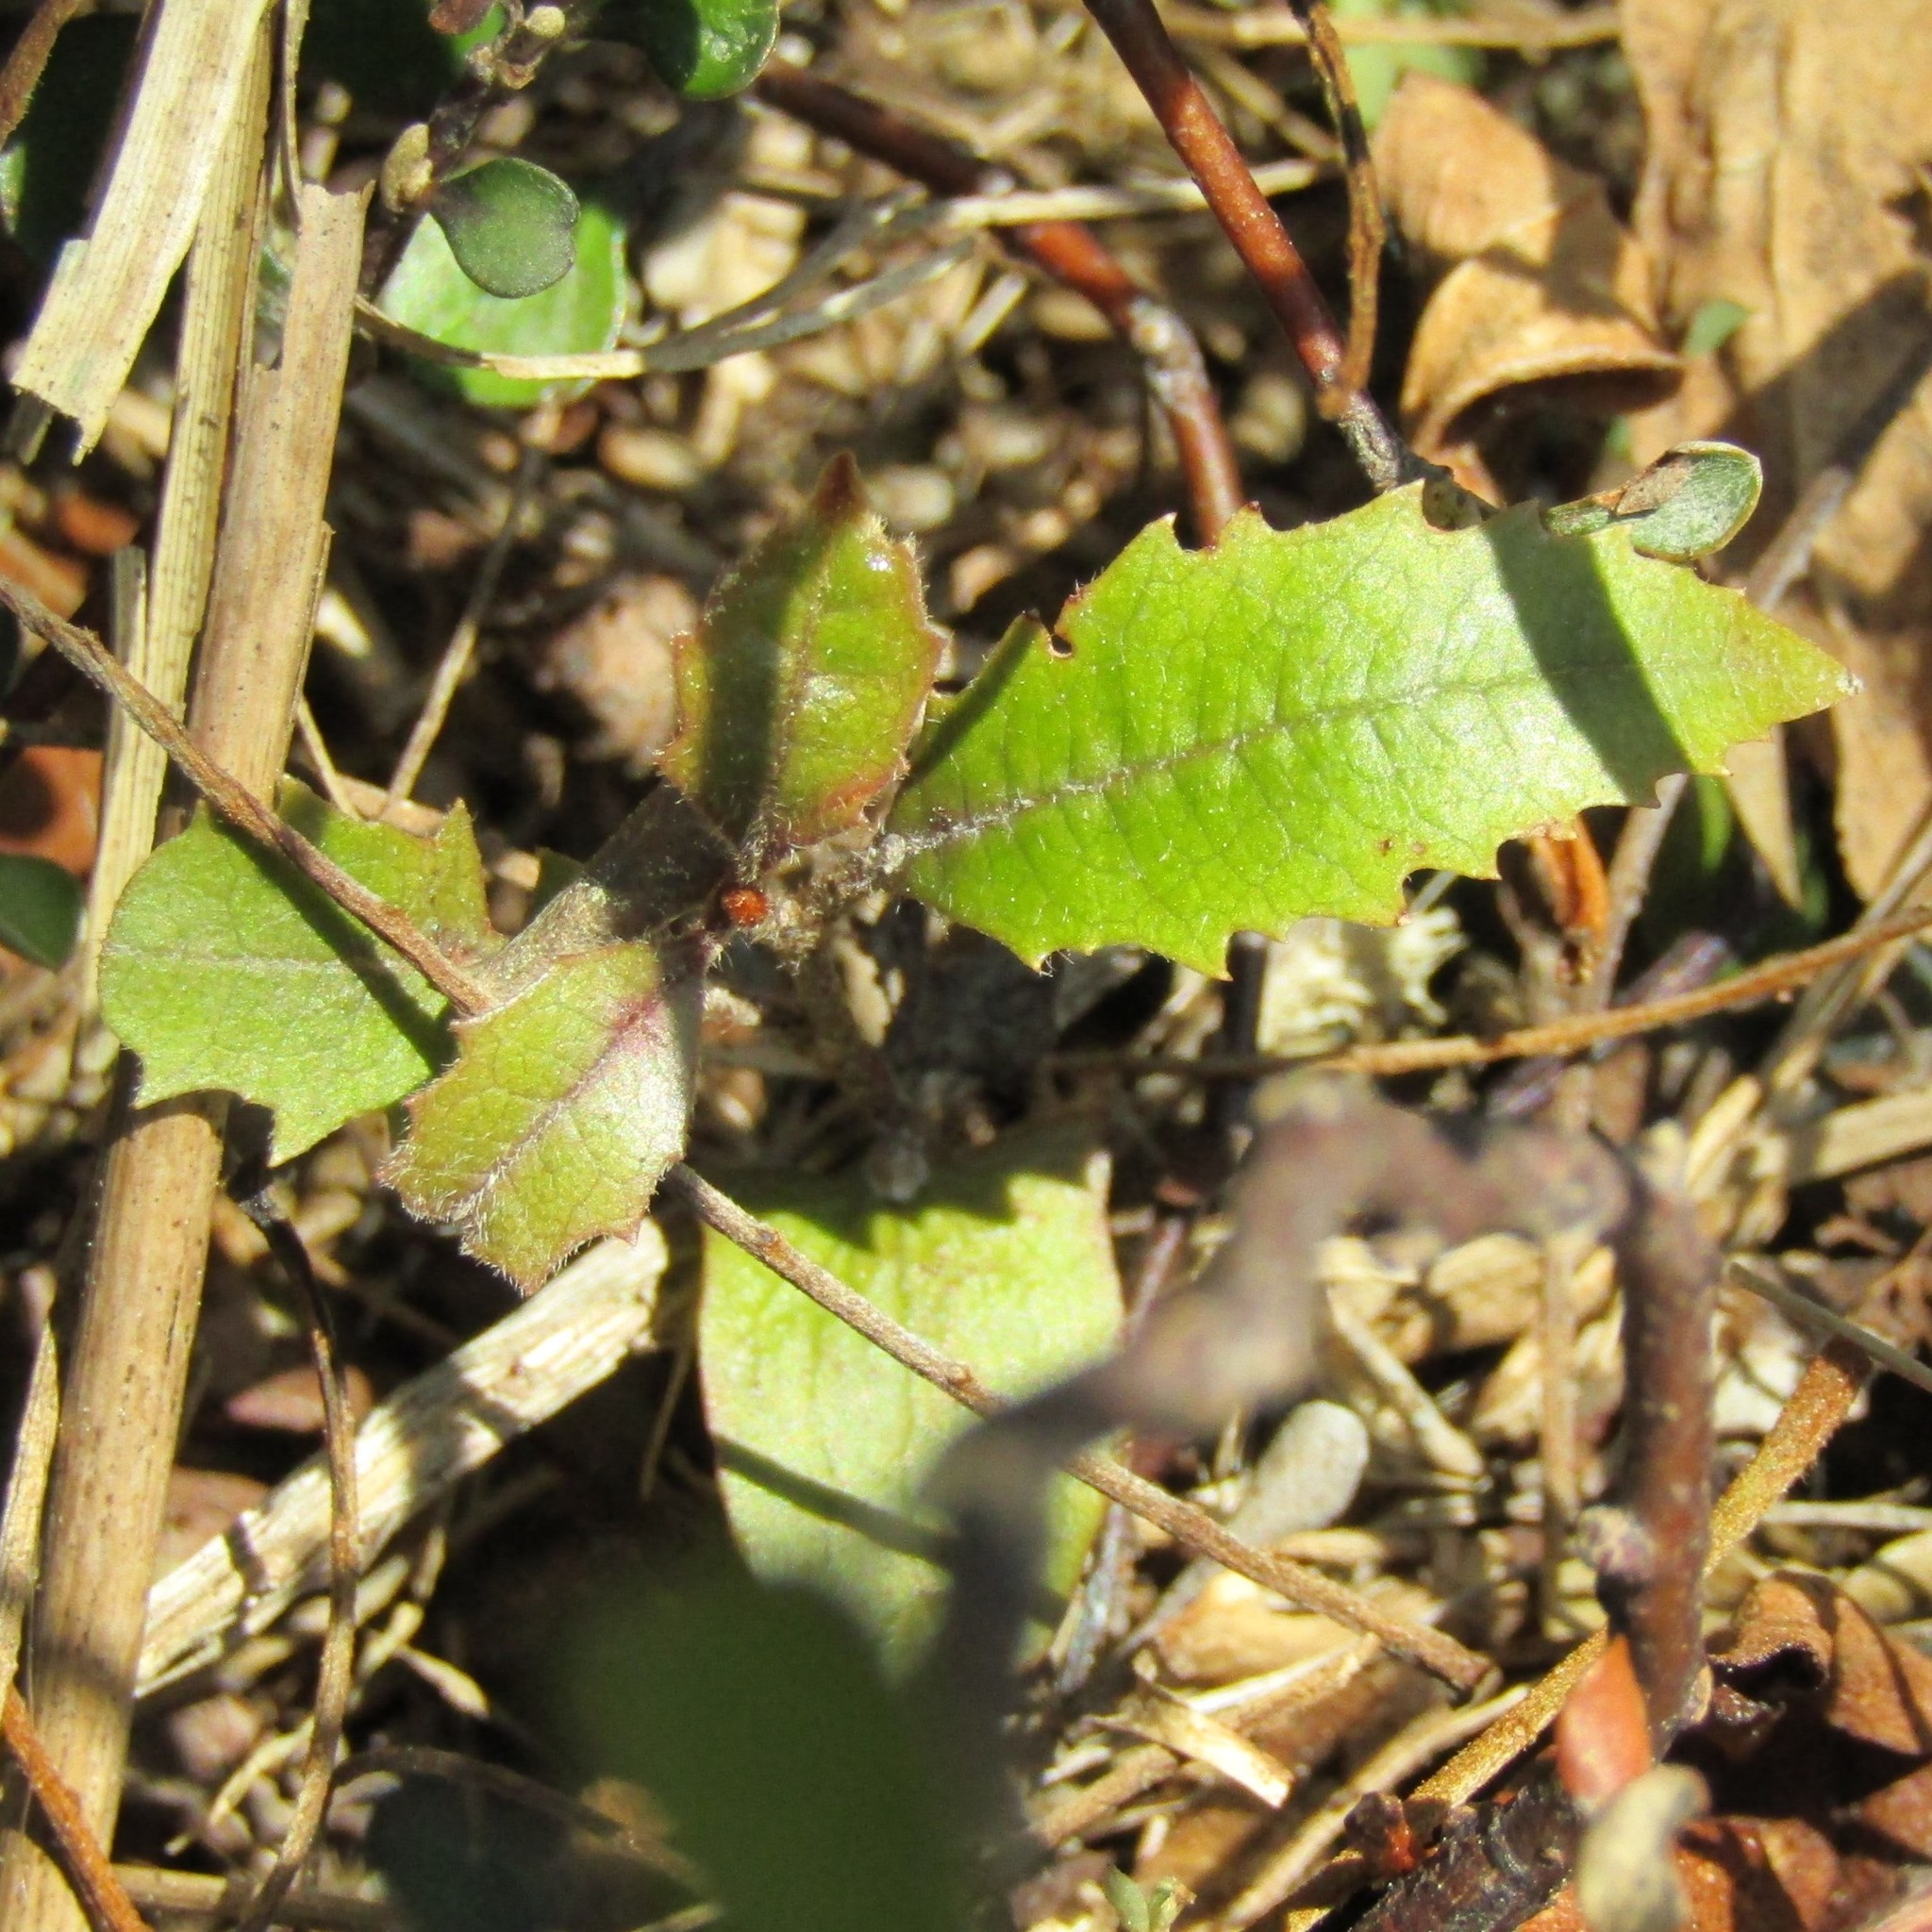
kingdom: Plantae
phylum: Tracheophyta
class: Magnoliopsida
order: Proteales
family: Proteaceae
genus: Knightia
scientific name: Knightia excelsa
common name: New zealand-honeysuckle
